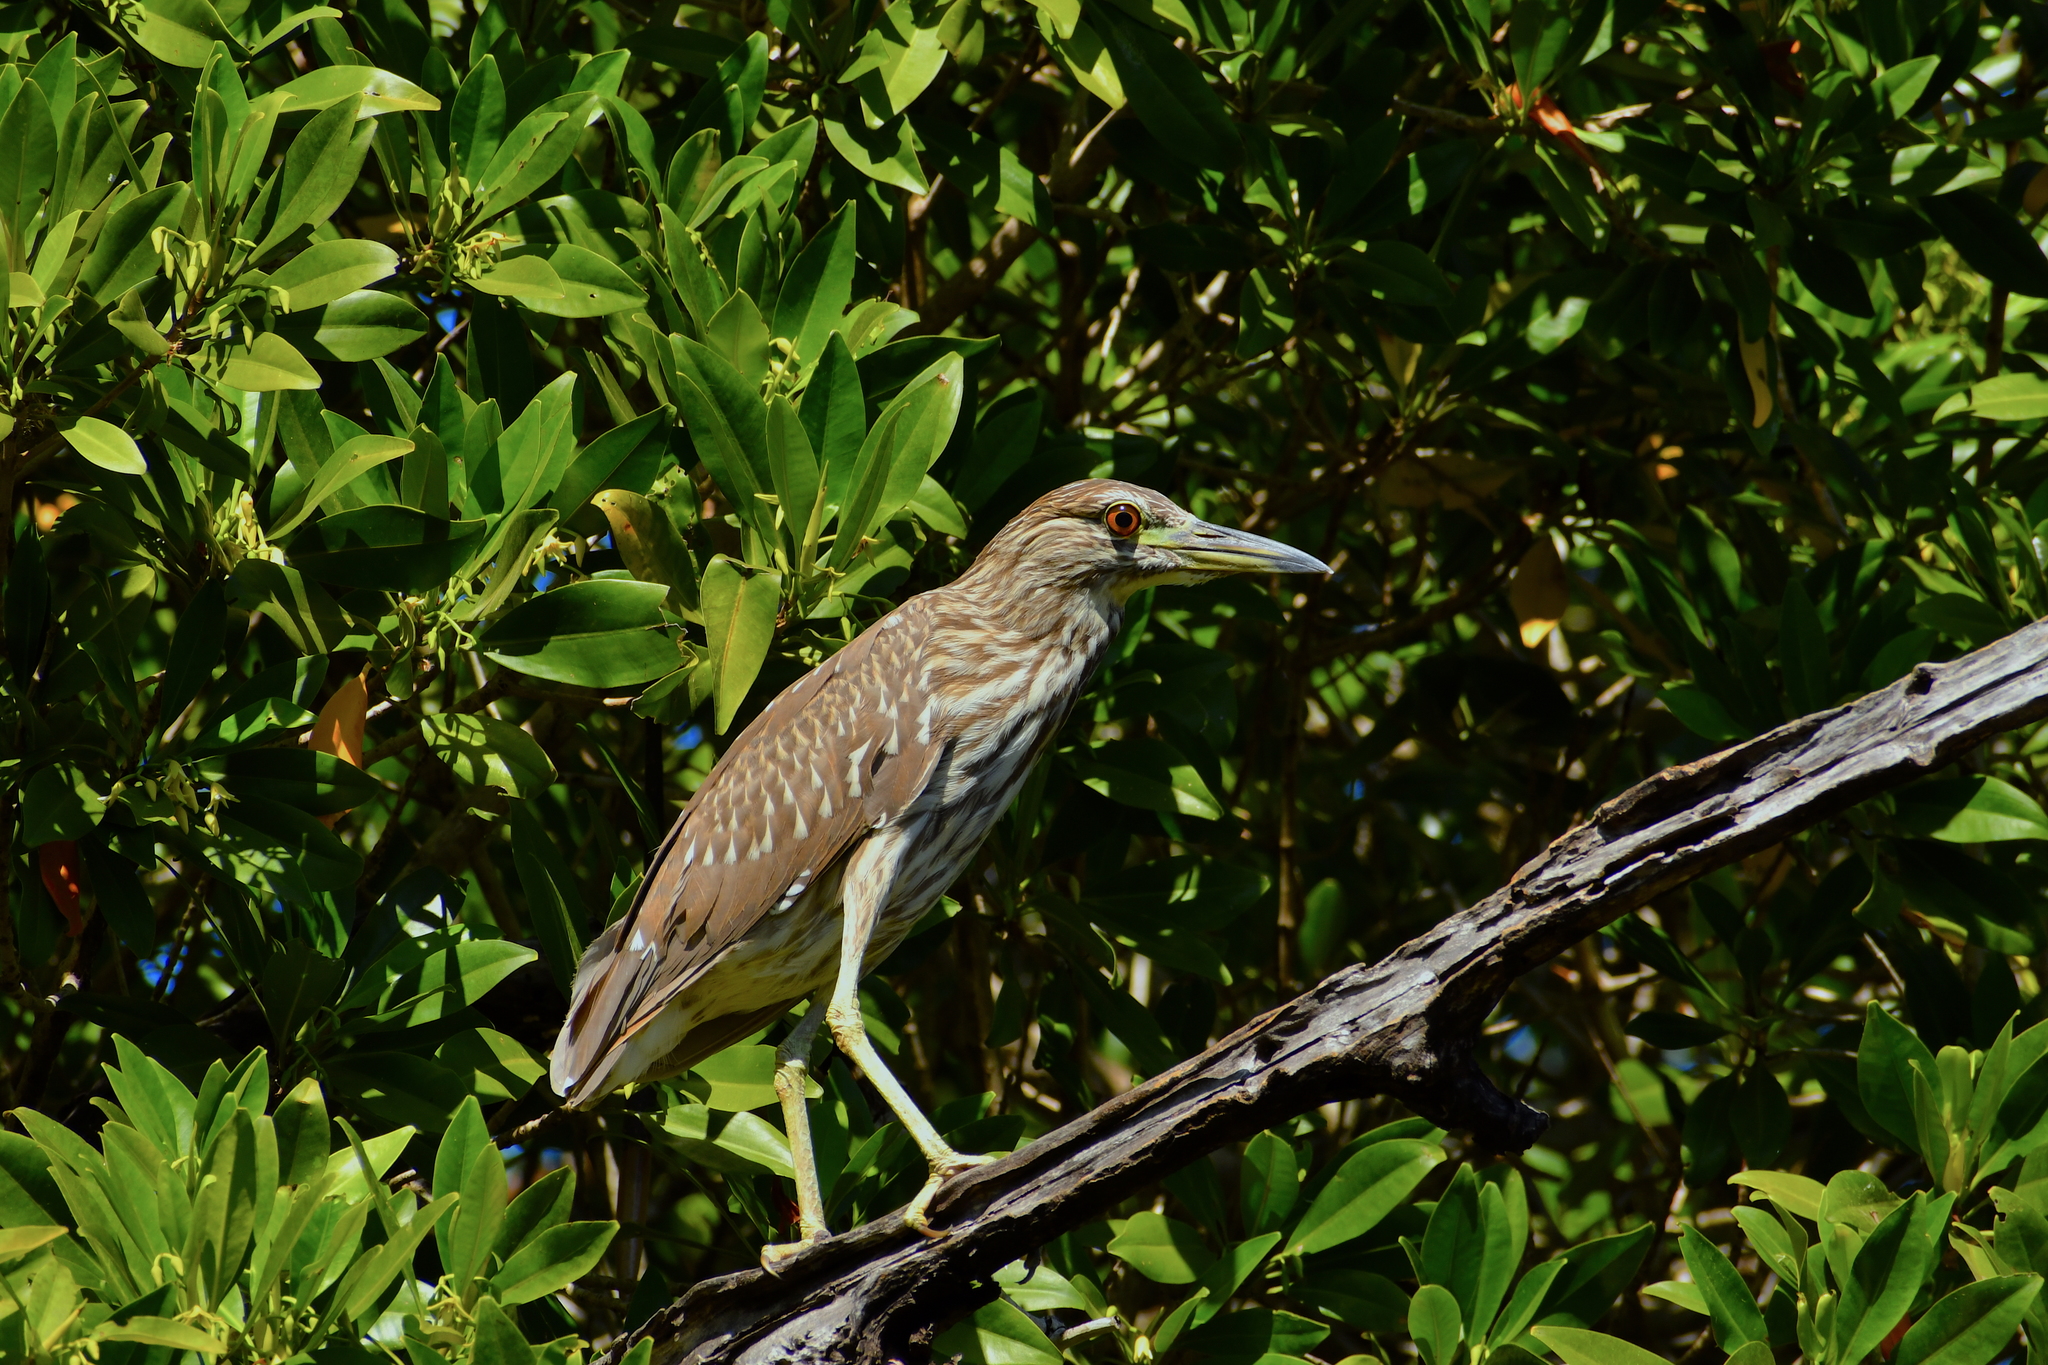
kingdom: Animalia
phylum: Chordata
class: Aves
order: Pelecaniformes
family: Ardeidae
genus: Nycticorax
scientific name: Nycticorax nycticorax
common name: Black-crowned night heron
